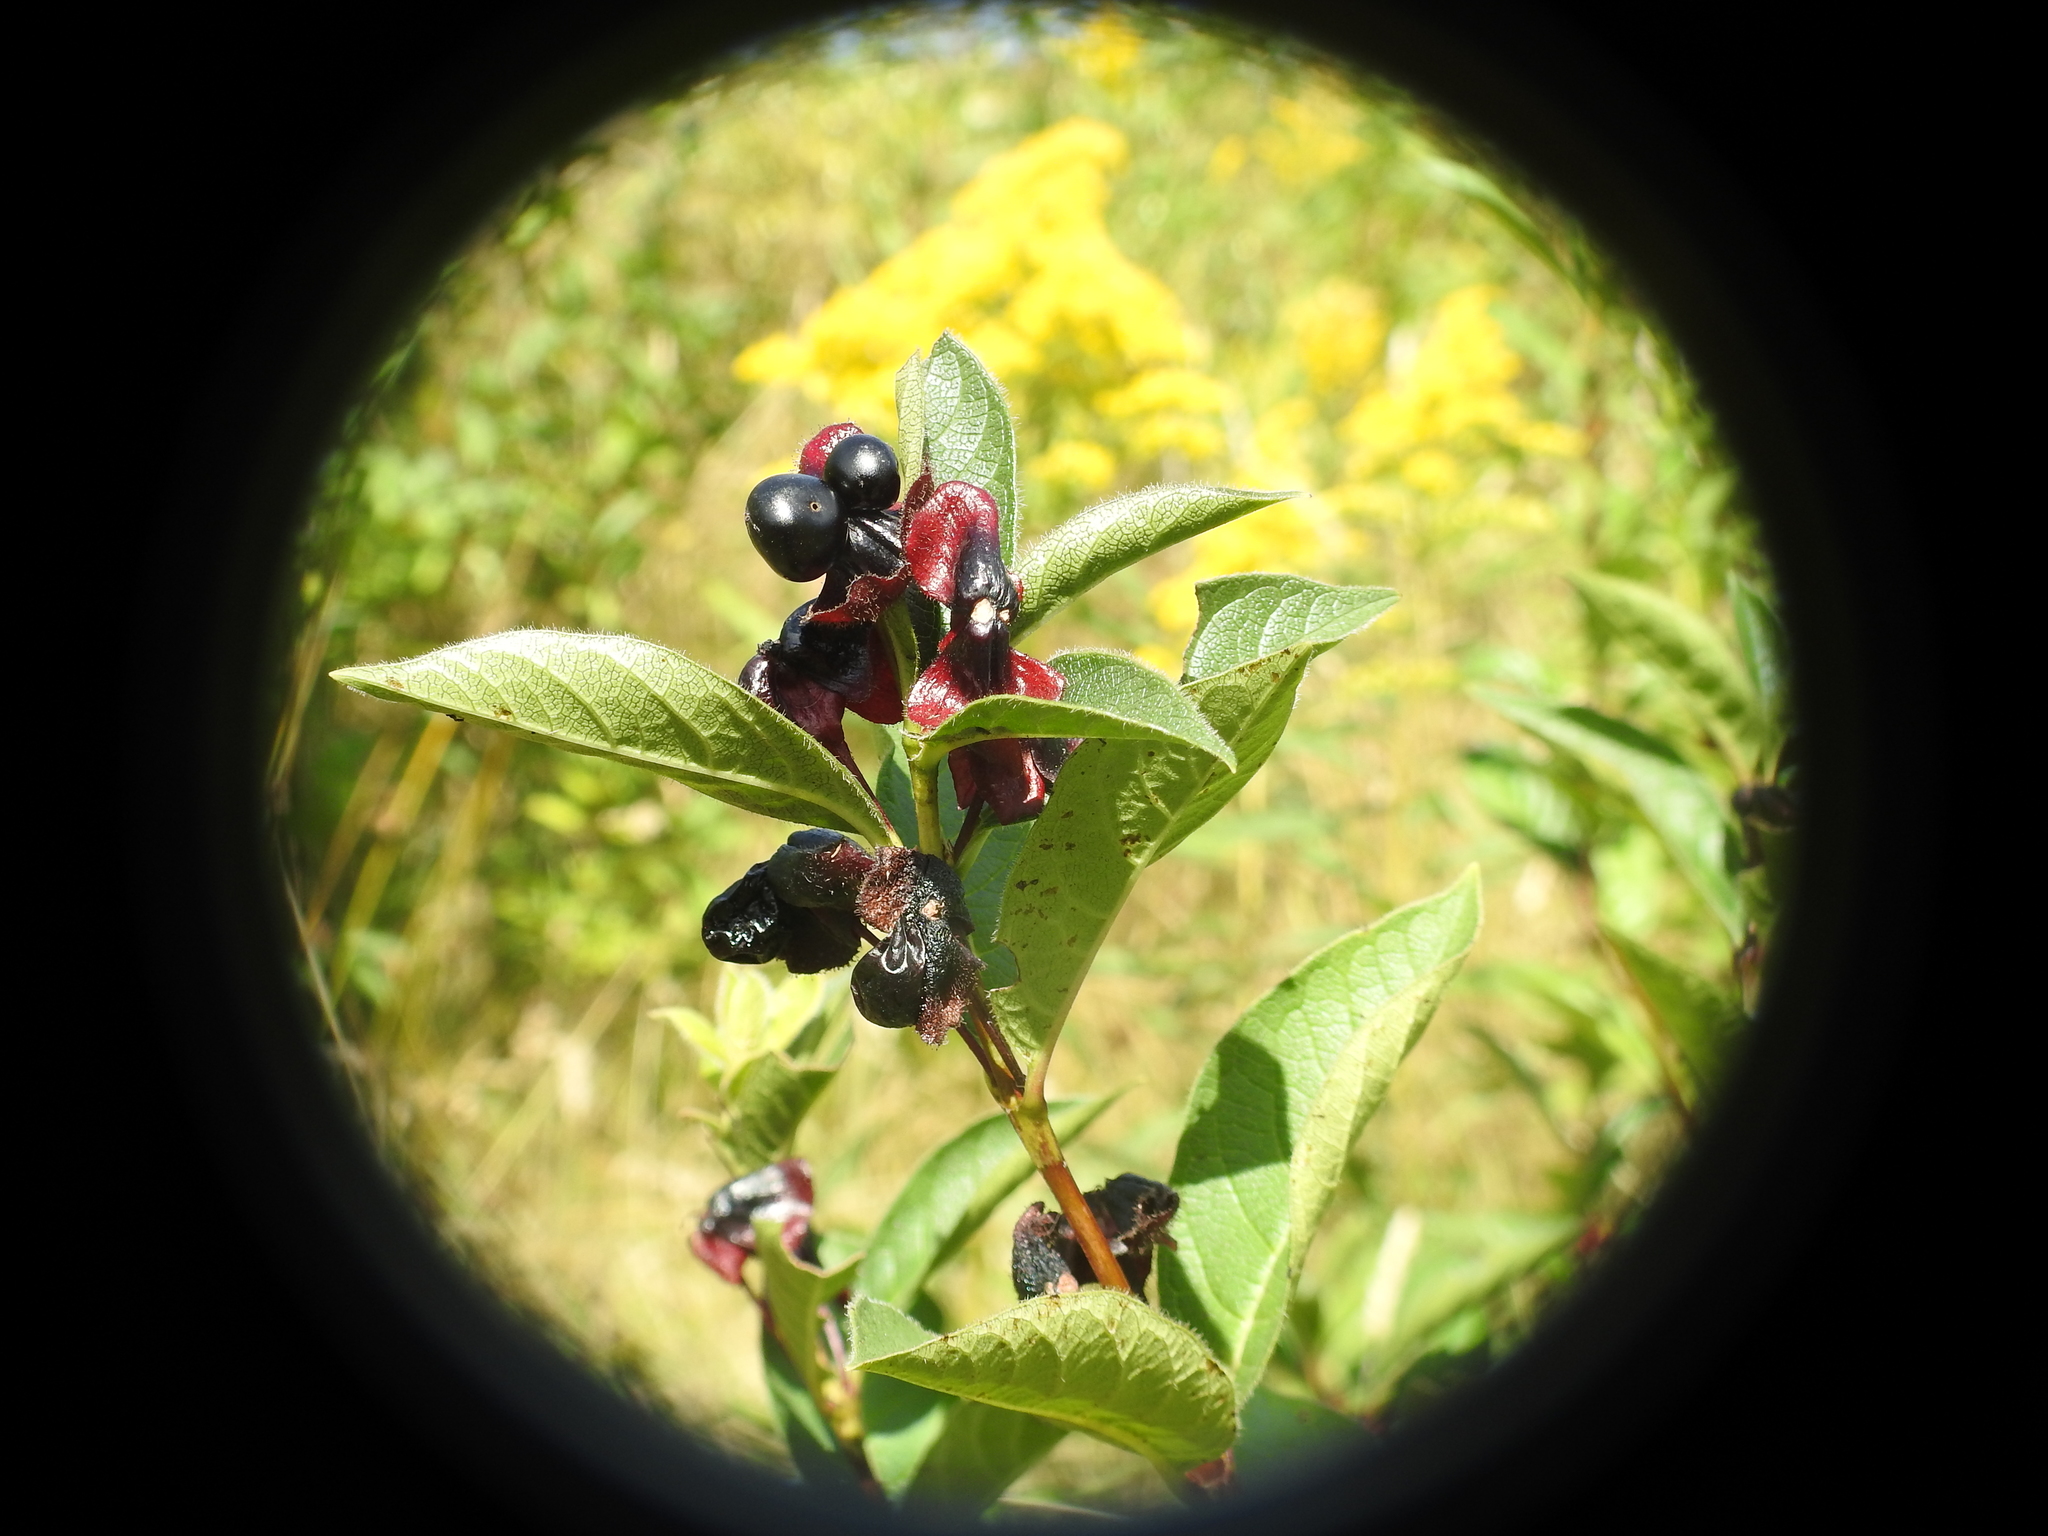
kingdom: Plantae
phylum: Tracheophyta
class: Magnoliopsida
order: Dipsacales
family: Caprifoliaceae
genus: Lonicera
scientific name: Lonicera involucrata
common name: Californian honeysuckle
